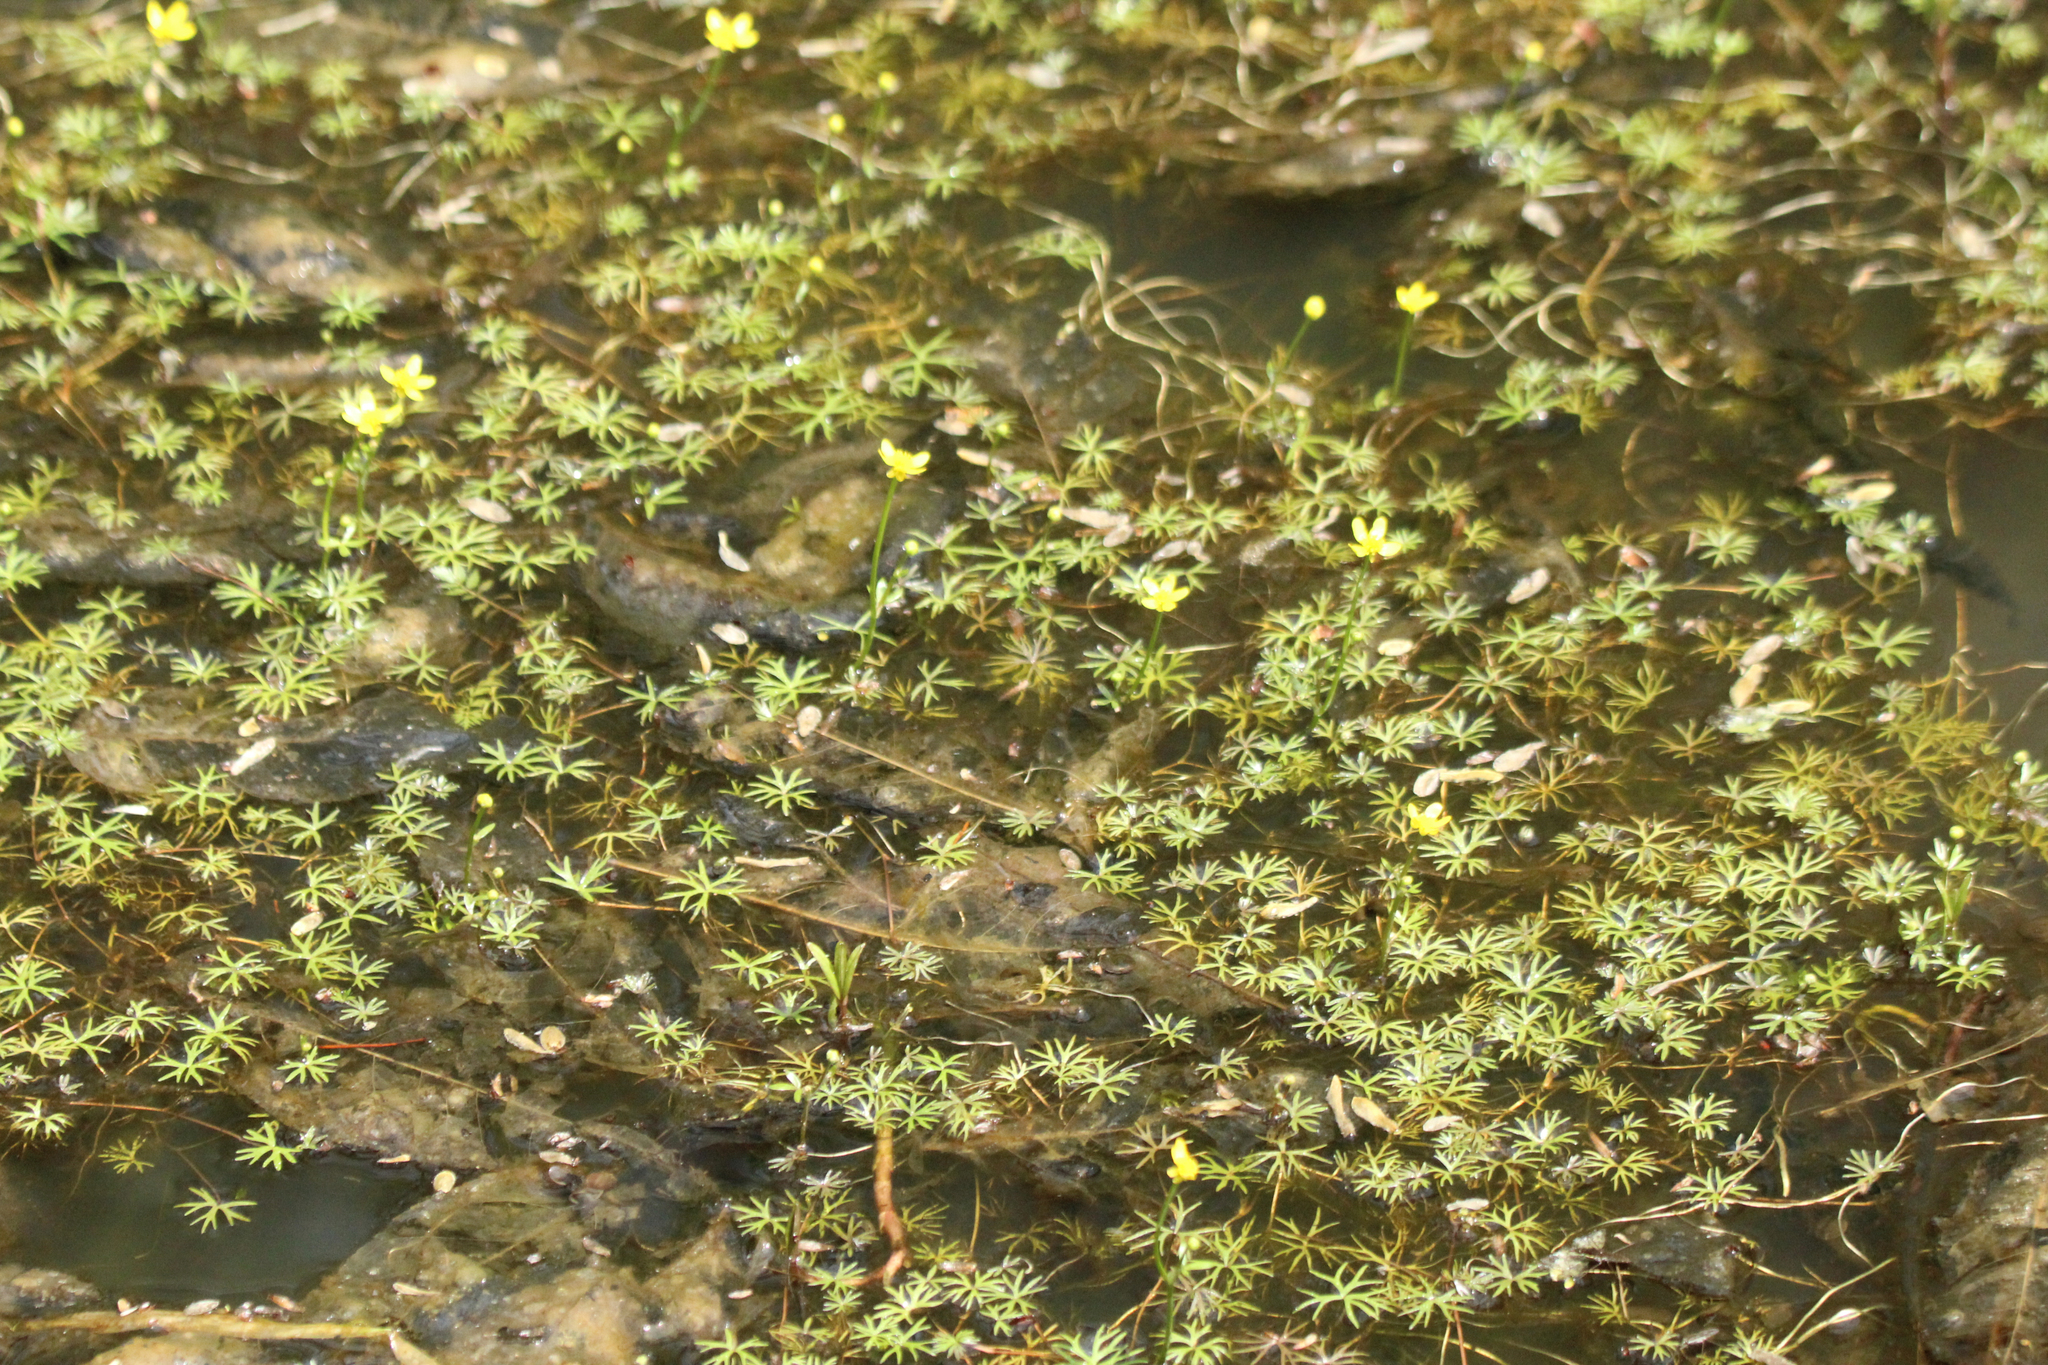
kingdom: Plantae
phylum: Tracheophyta
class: Magnoliopsida
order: Ranunculales
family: Ranunculaceae
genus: Ranunculus
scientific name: Ranunculus gmelinii
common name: Gmelin's buttercup
